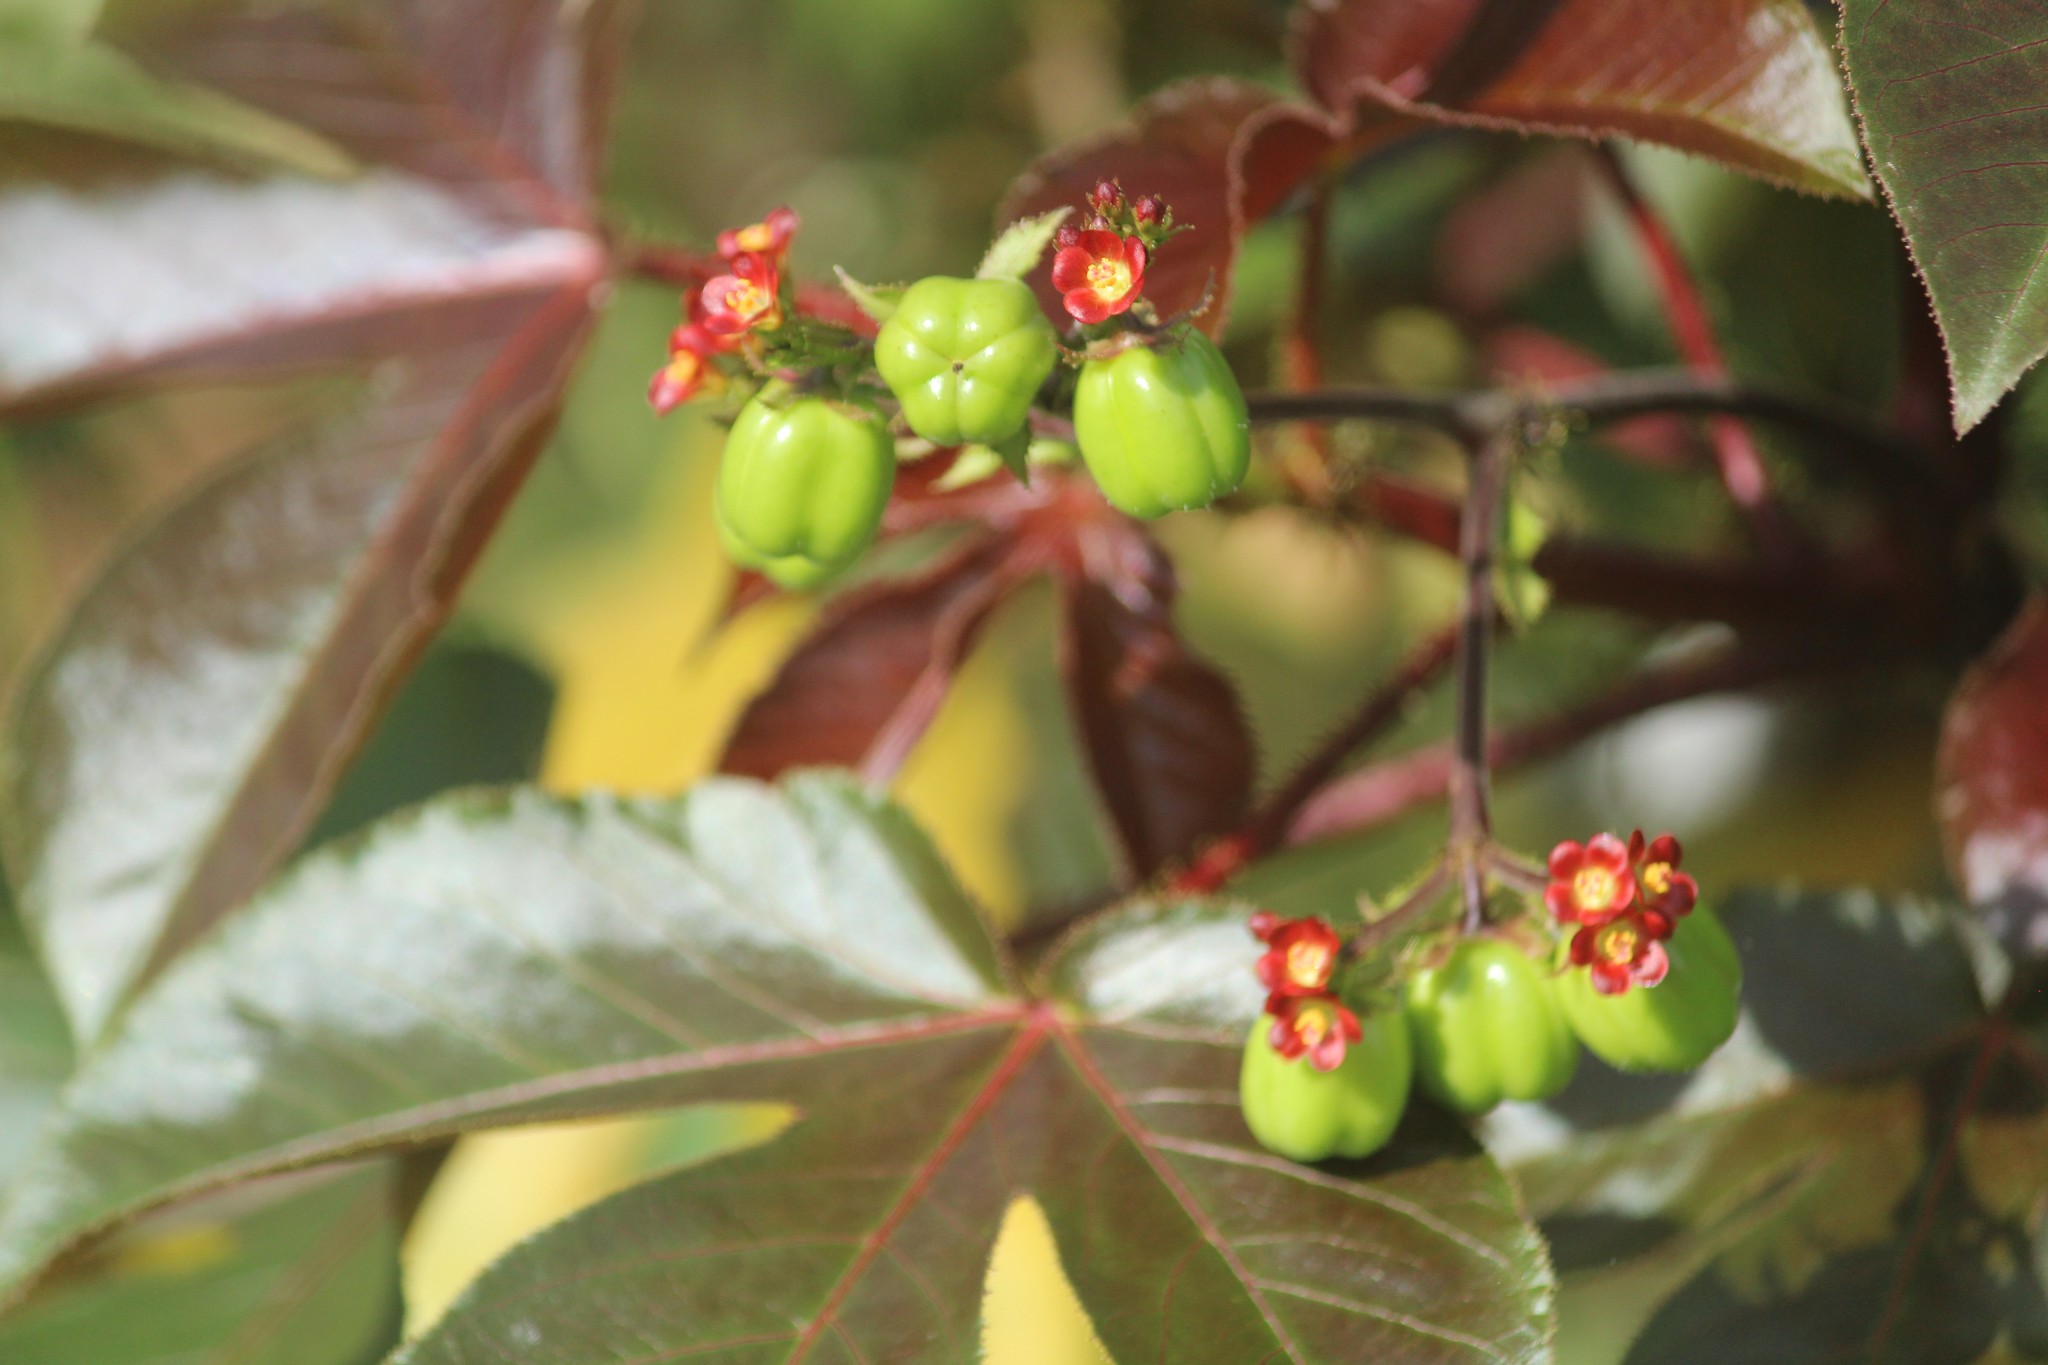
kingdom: Plantae
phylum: Tracheophyta
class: Magnoliopsida
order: Malpighiales
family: Euphorbiaceae
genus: Jatropha
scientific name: Jatropha gossypiifolia
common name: Bellyache bush
